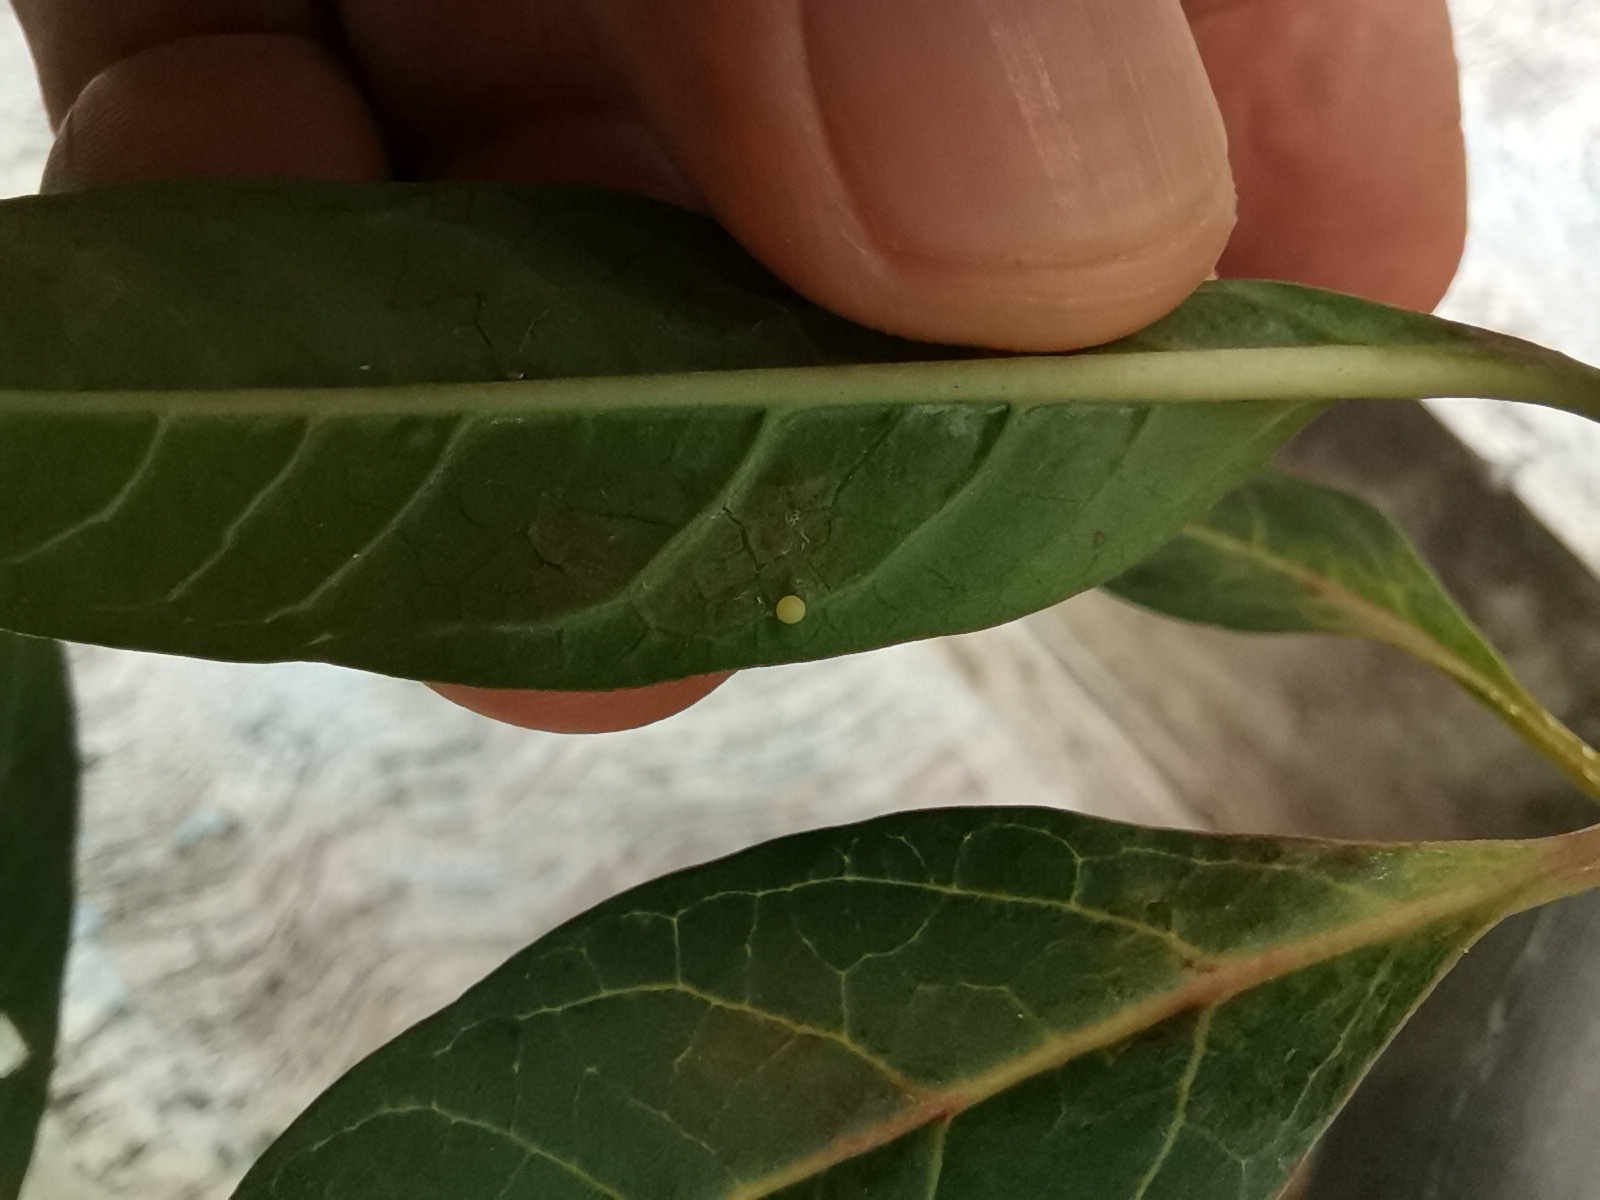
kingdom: Animalia
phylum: Arthropoda
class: Insecta
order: Lepidoptera
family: Nymphalidae
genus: Danaus
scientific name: Danaus plexippus
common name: Monarch
